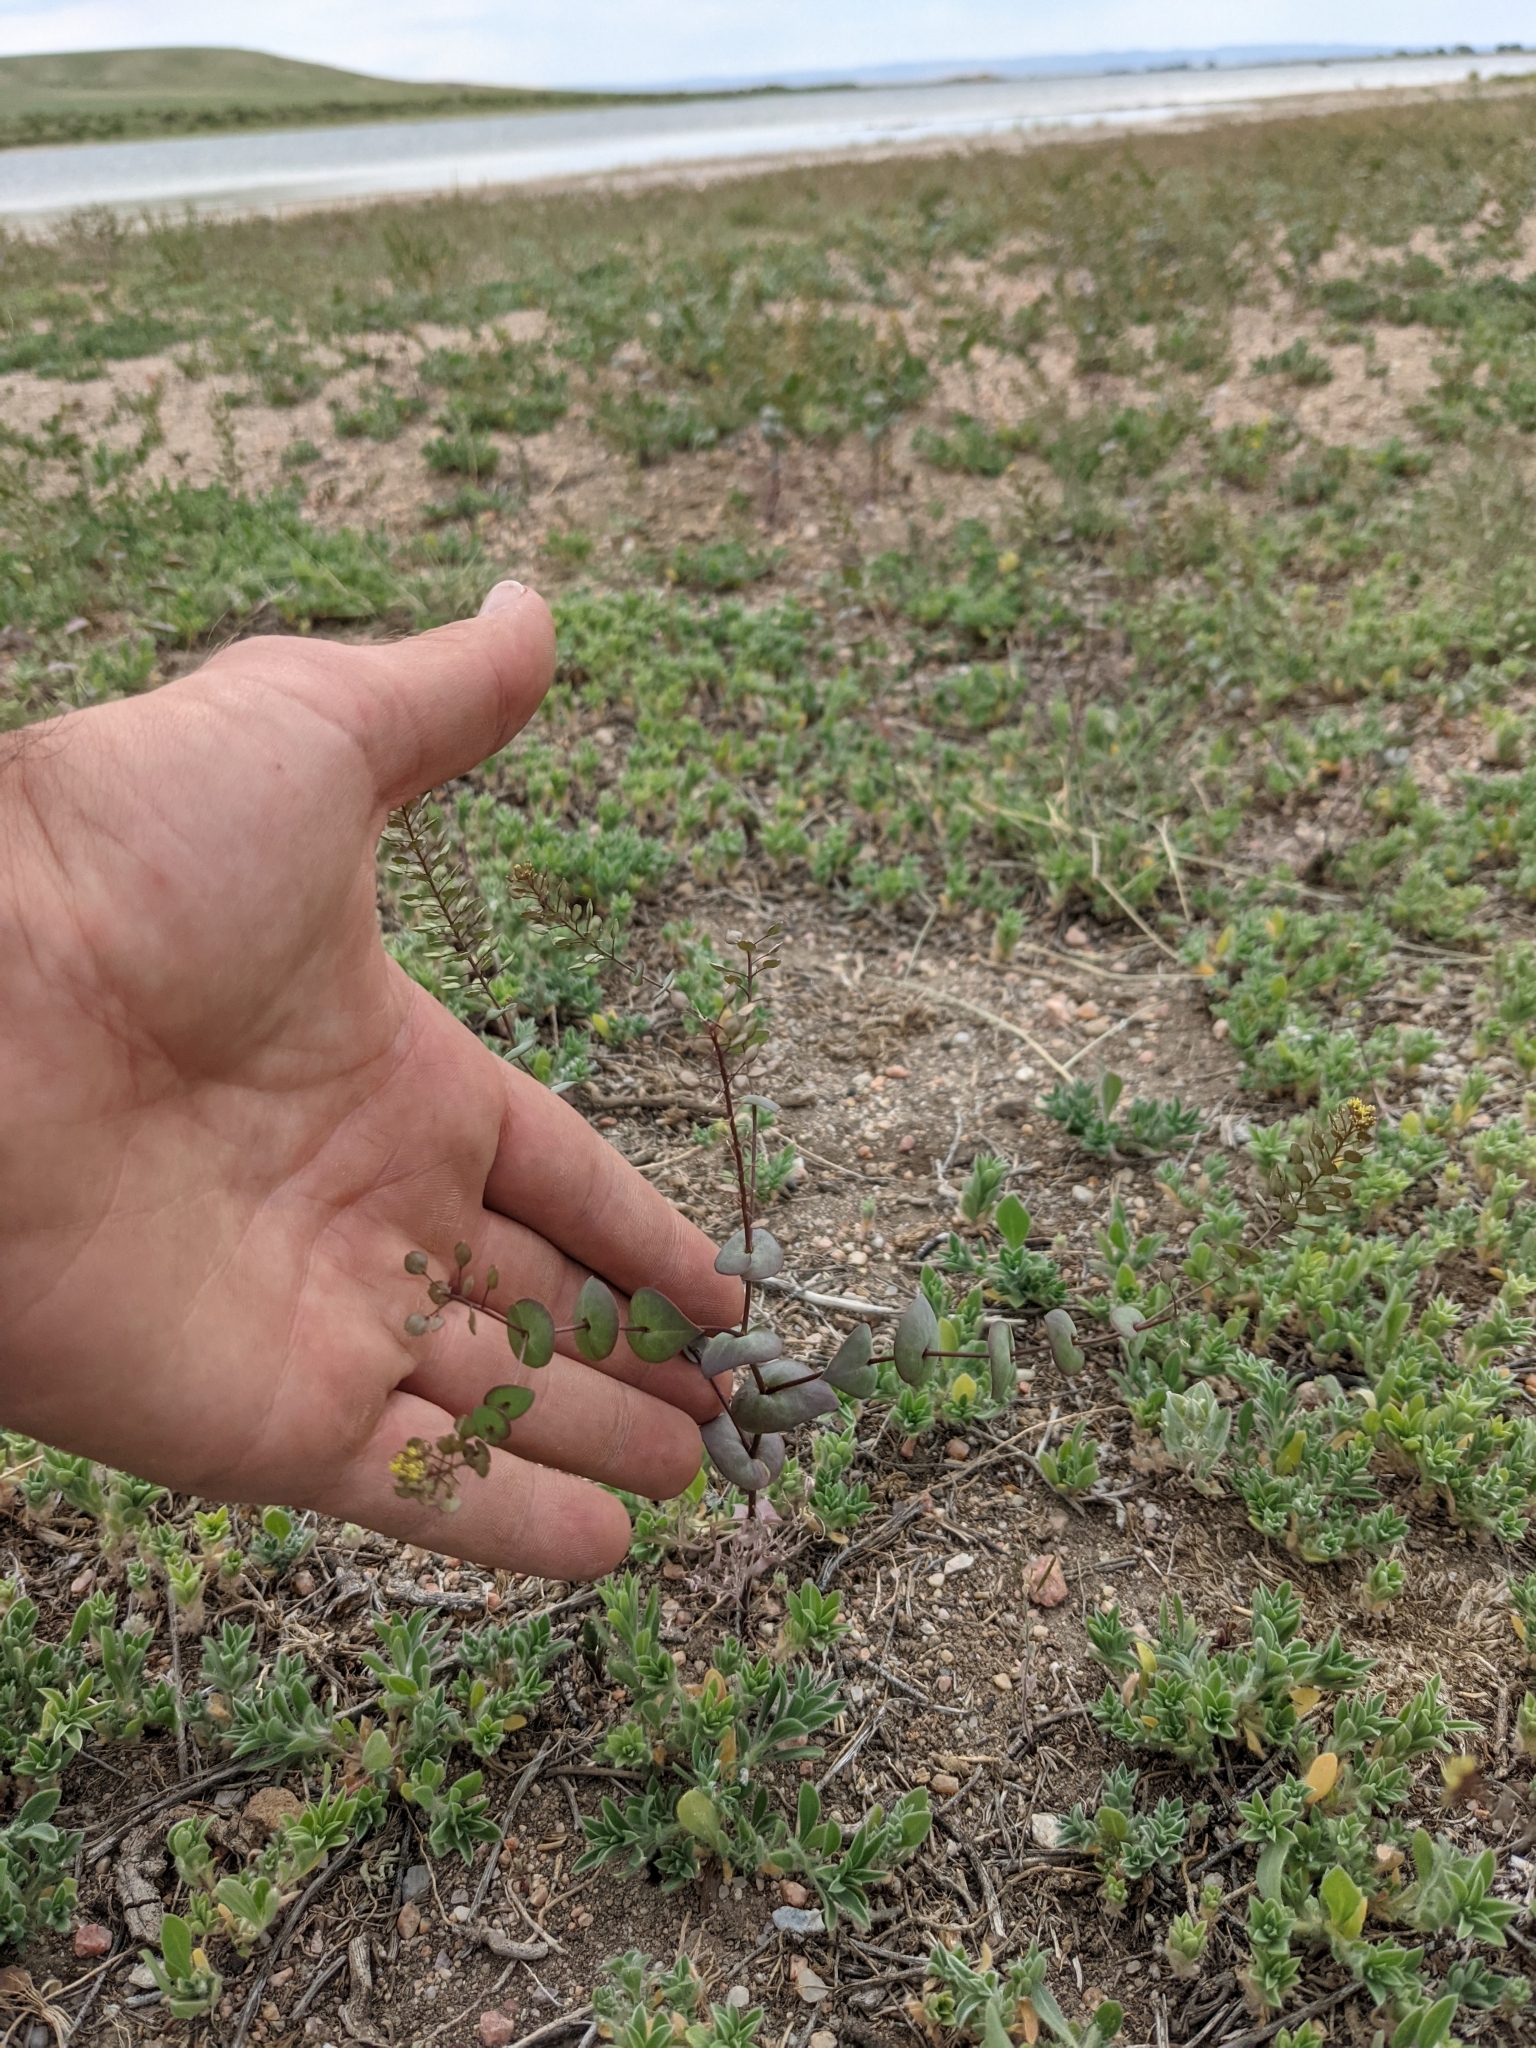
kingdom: Plantae
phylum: Tracheophyta
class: Magnoliopsida
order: Brassicales
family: Brassicaceae
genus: Lepidium
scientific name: Lepidium perfoliatum
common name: Perfoliate pepperwort
